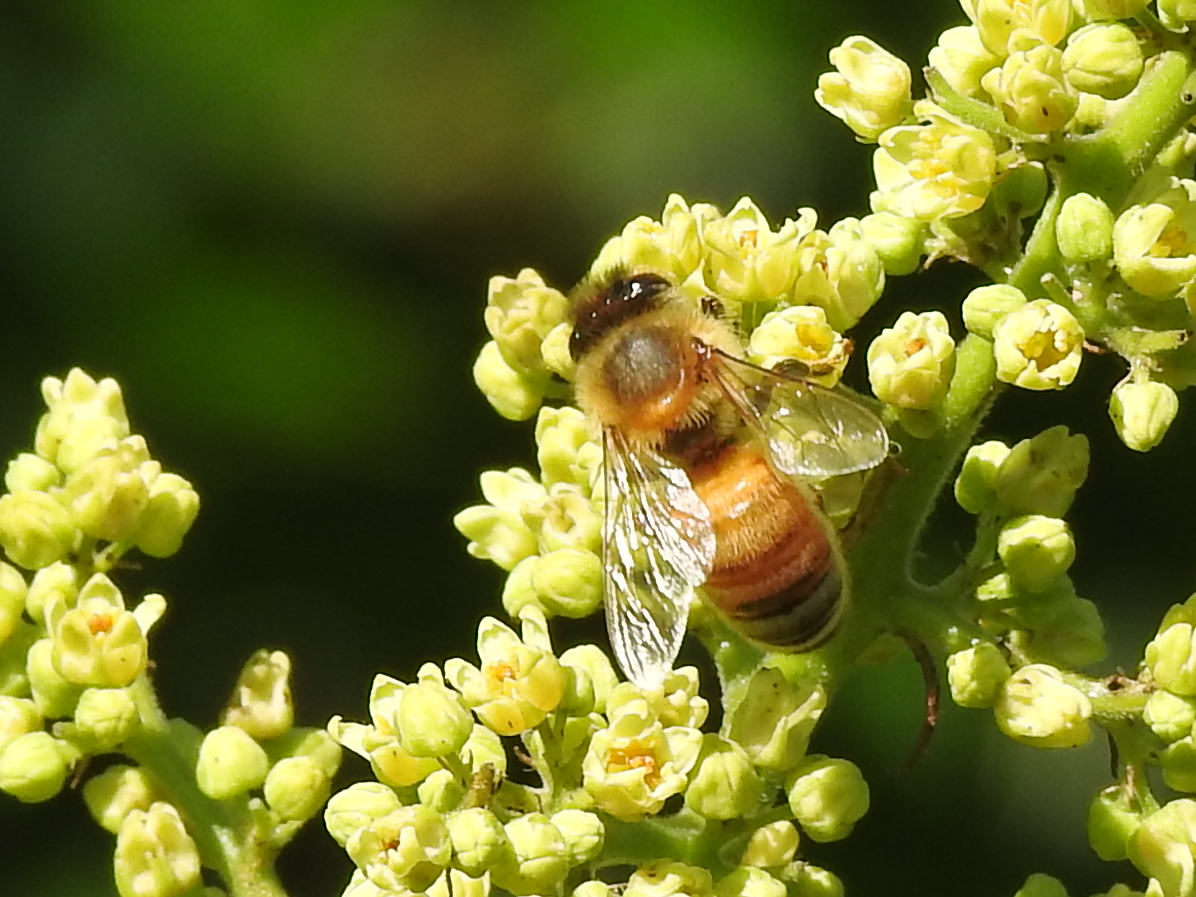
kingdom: Animalia
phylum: Arthropoda
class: Insecta
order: Hymenoptera
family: Apidae
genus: Apis
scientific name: Apis mellifera
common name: Honey bee
